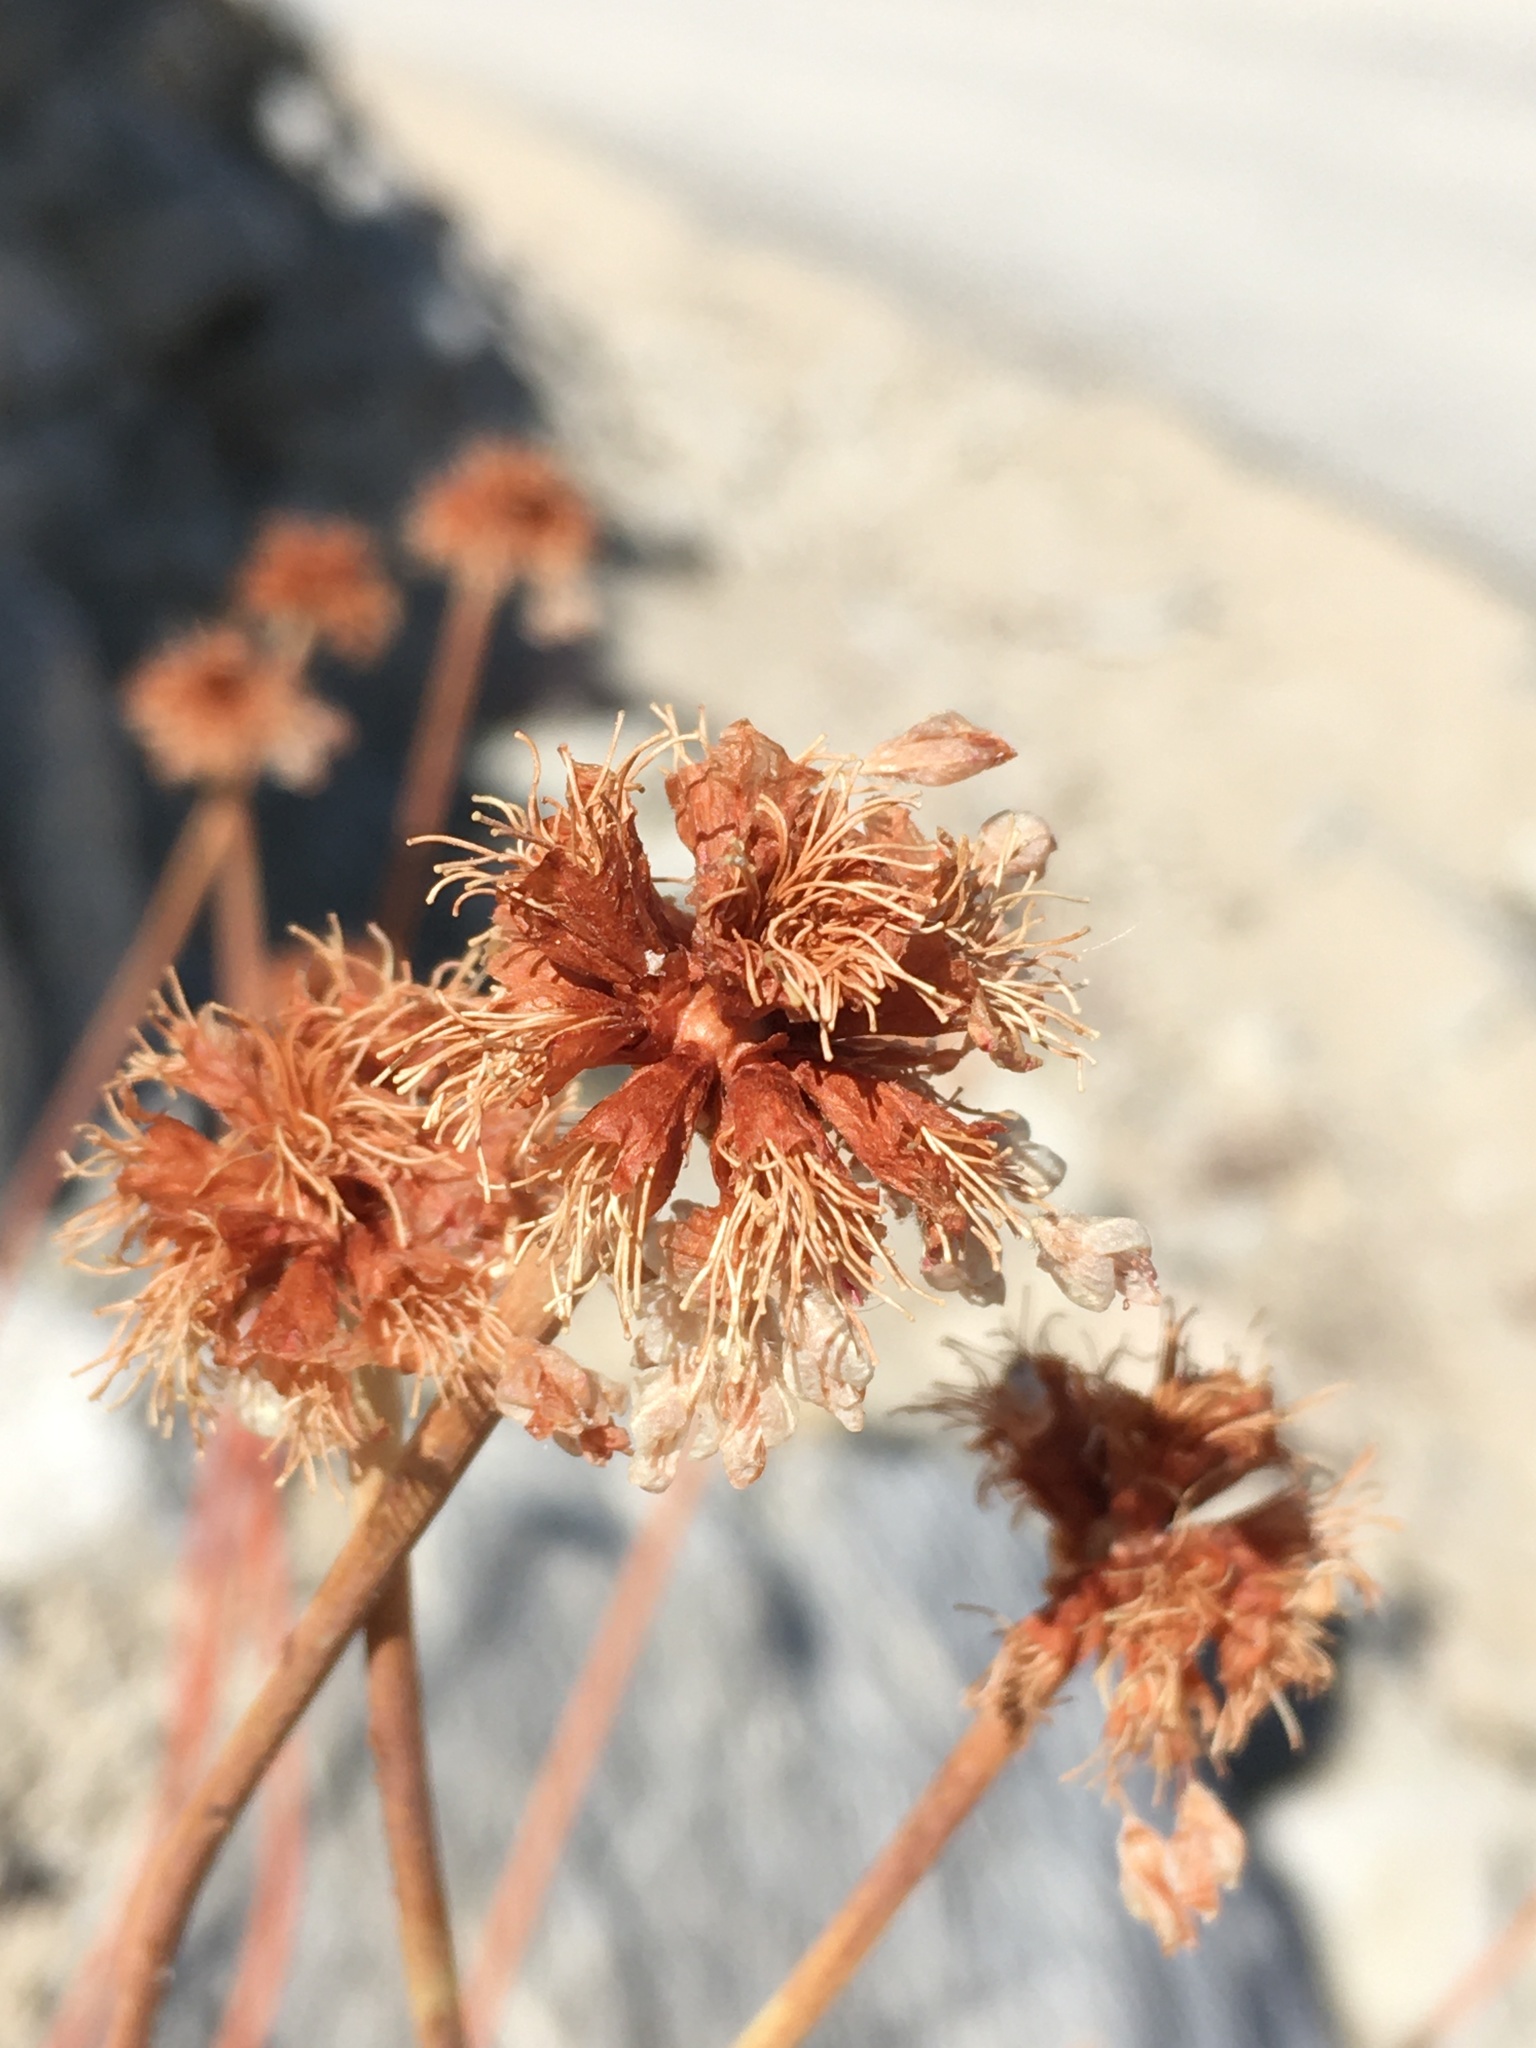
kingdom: Plantae
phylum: Tracheophyta
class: Magnoliopsida
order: Caryophyllales
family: Polygonaceae
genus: Eriogonum
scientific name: Eriogonum latens
